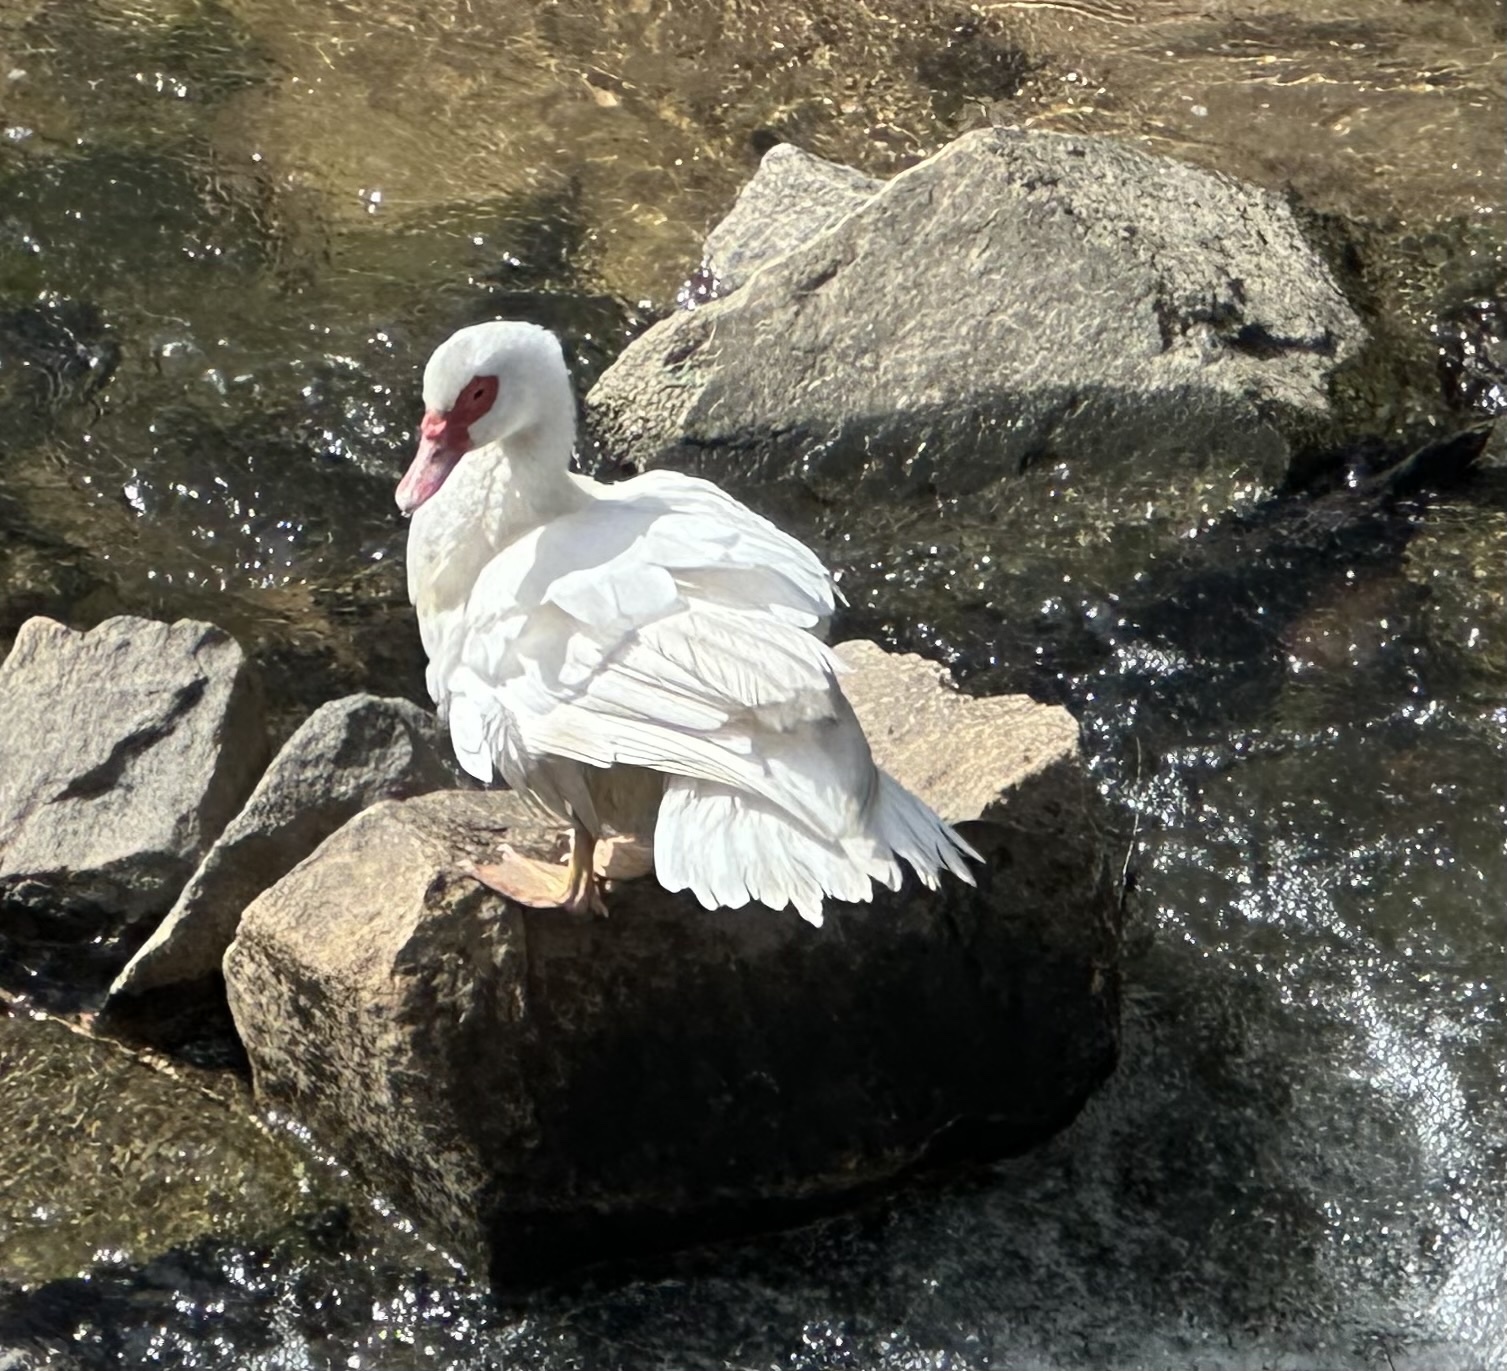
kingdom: Animalia
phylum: Chordata
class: Aves
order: Anseriformes
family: Anatidae
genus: Cairina
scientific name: Cairina moschata
